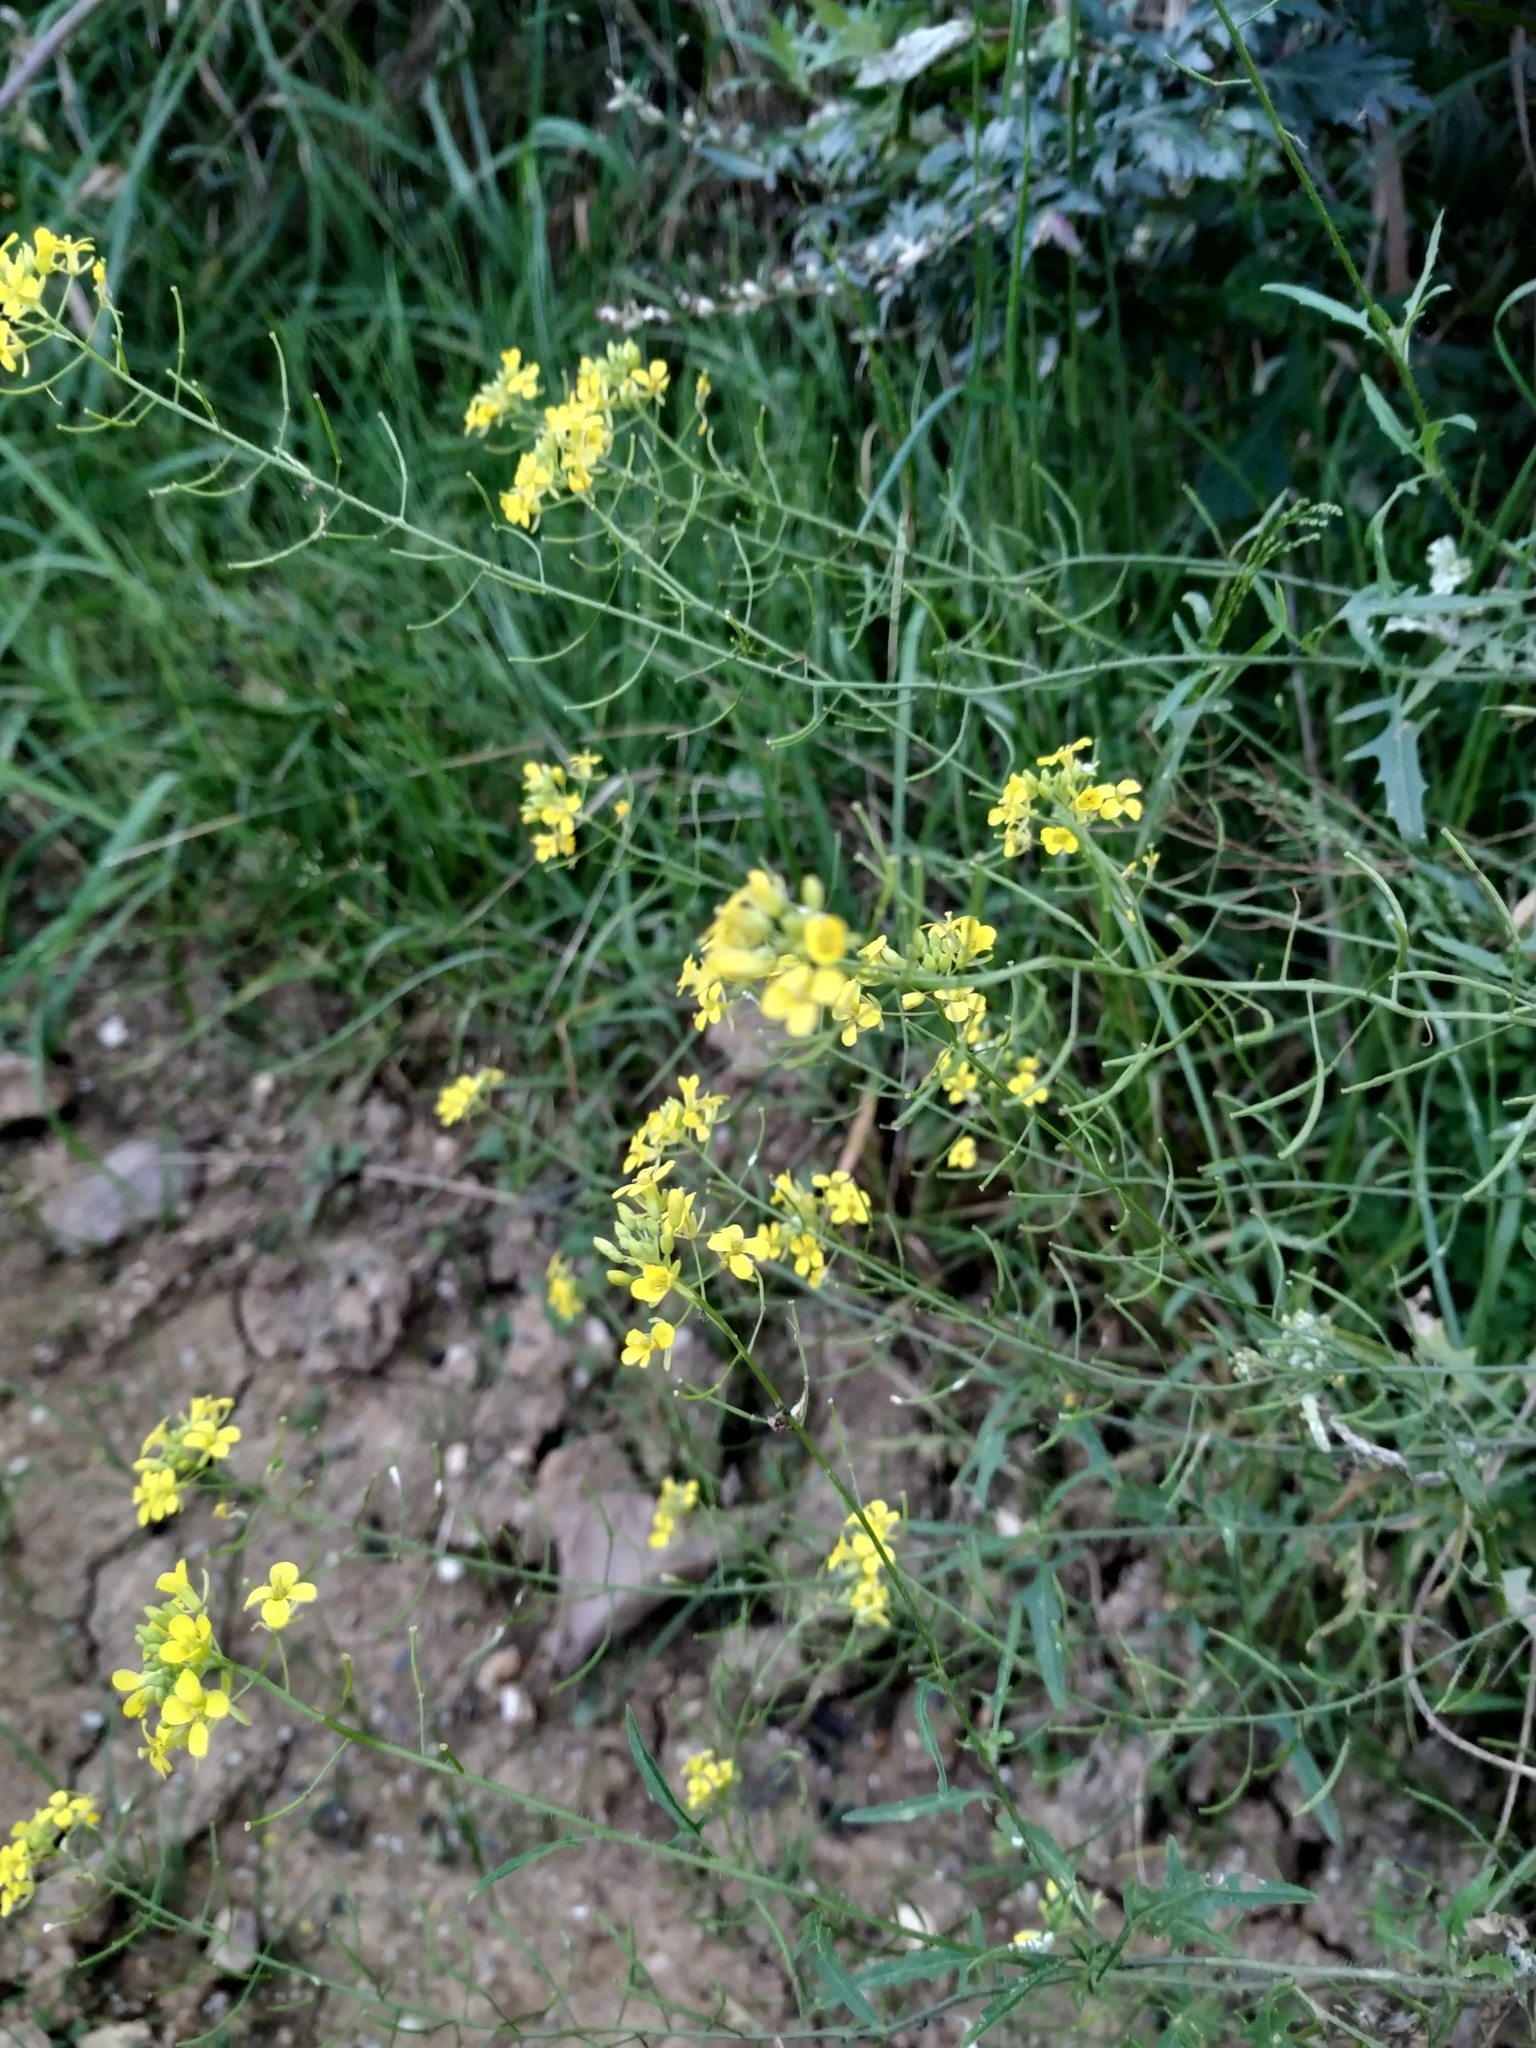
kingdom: Plantae
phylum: Tracheophyta
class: Magnoliopsida
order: Brassicales
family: Brassicaceae
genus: Sisymbrium
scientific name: Sisymbrium loeselii
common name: False london-rocket
